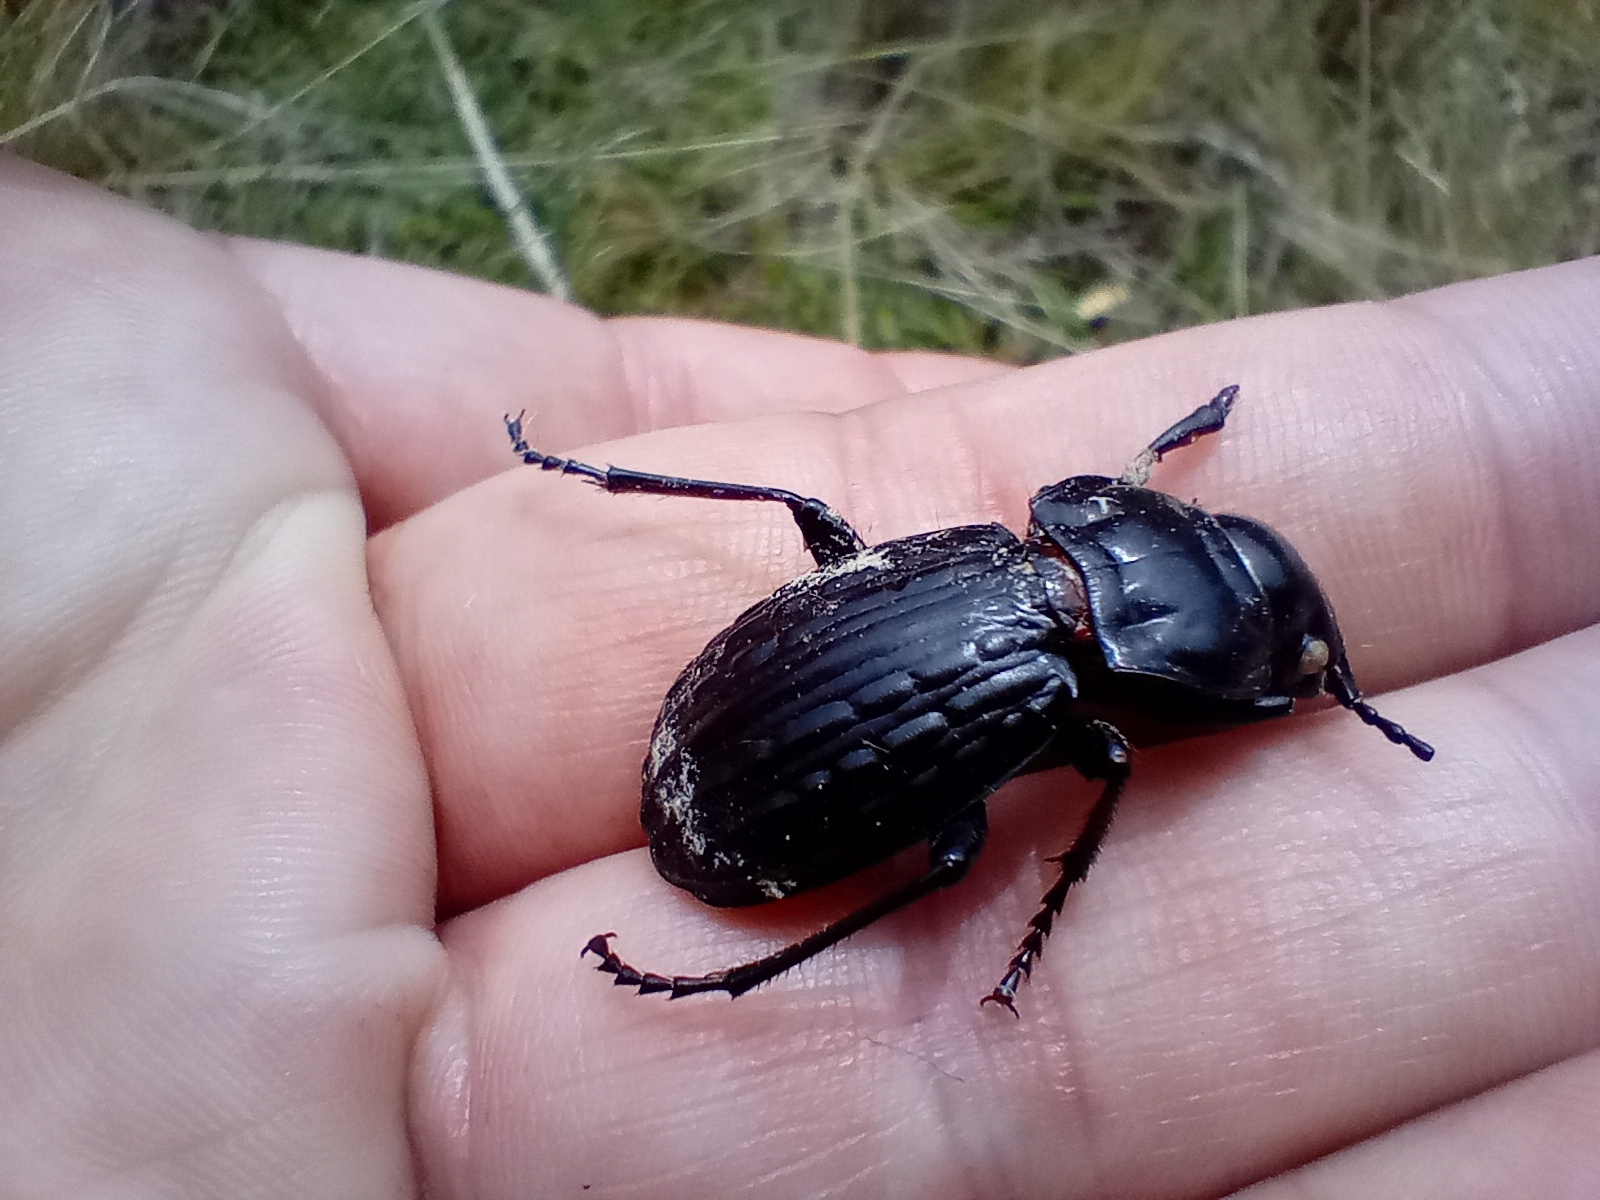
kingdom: Animalia
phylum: Arthropoda
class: Insecta
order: Coleoptera
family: Carabidae
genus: Megadromus
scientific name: Megadromus bullatus
